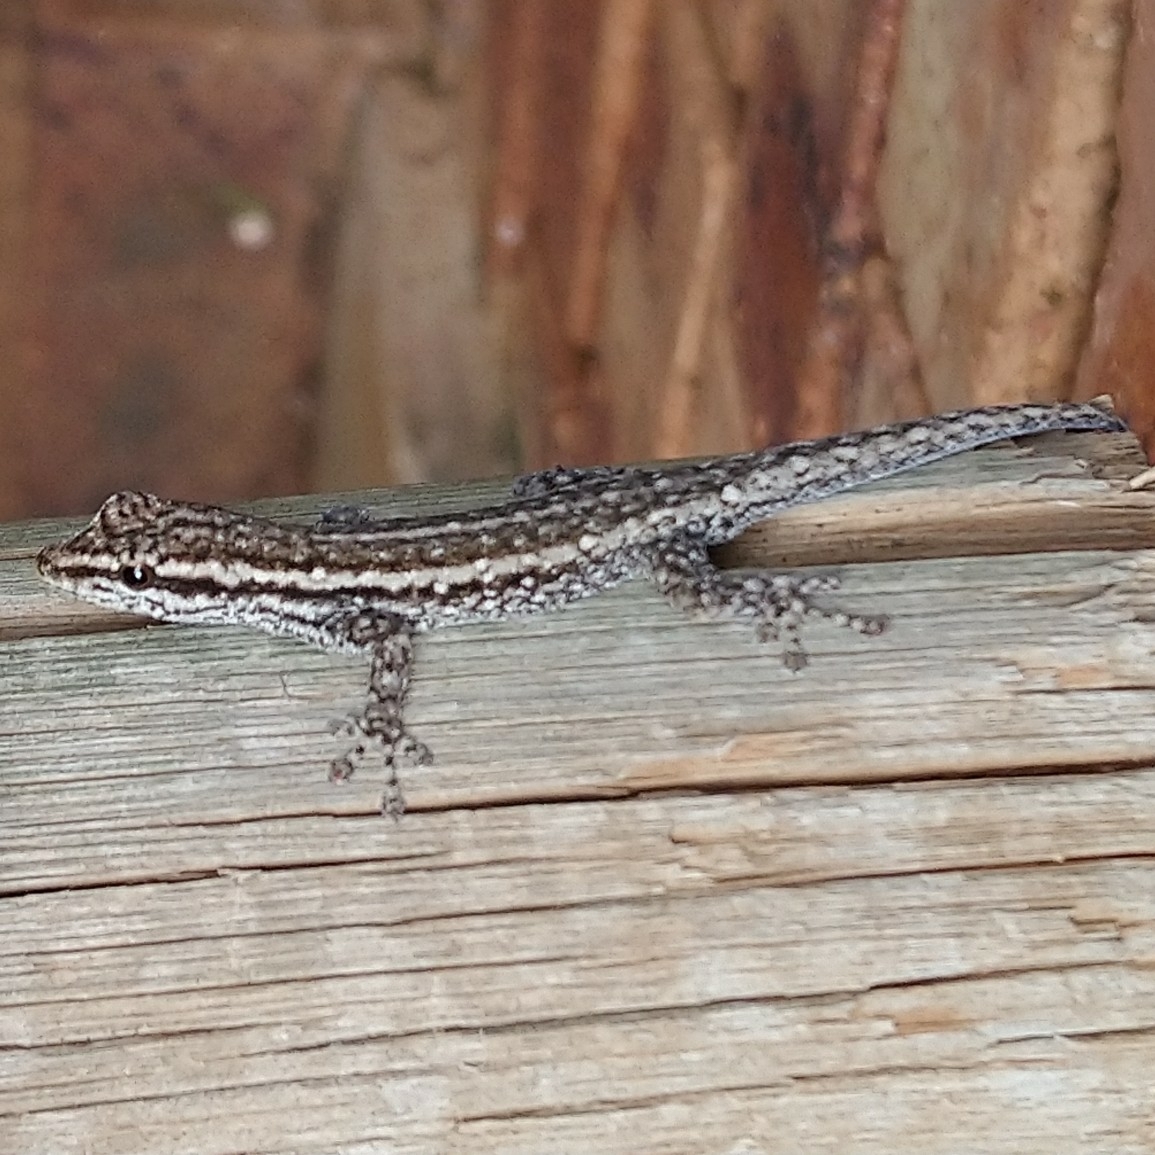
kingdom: Animalia
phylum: Chordata
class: Squamata
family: Gekkonidae
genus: Lygodactylus
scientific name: Lygodactylus capensis
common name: Cape dwarf gecko
